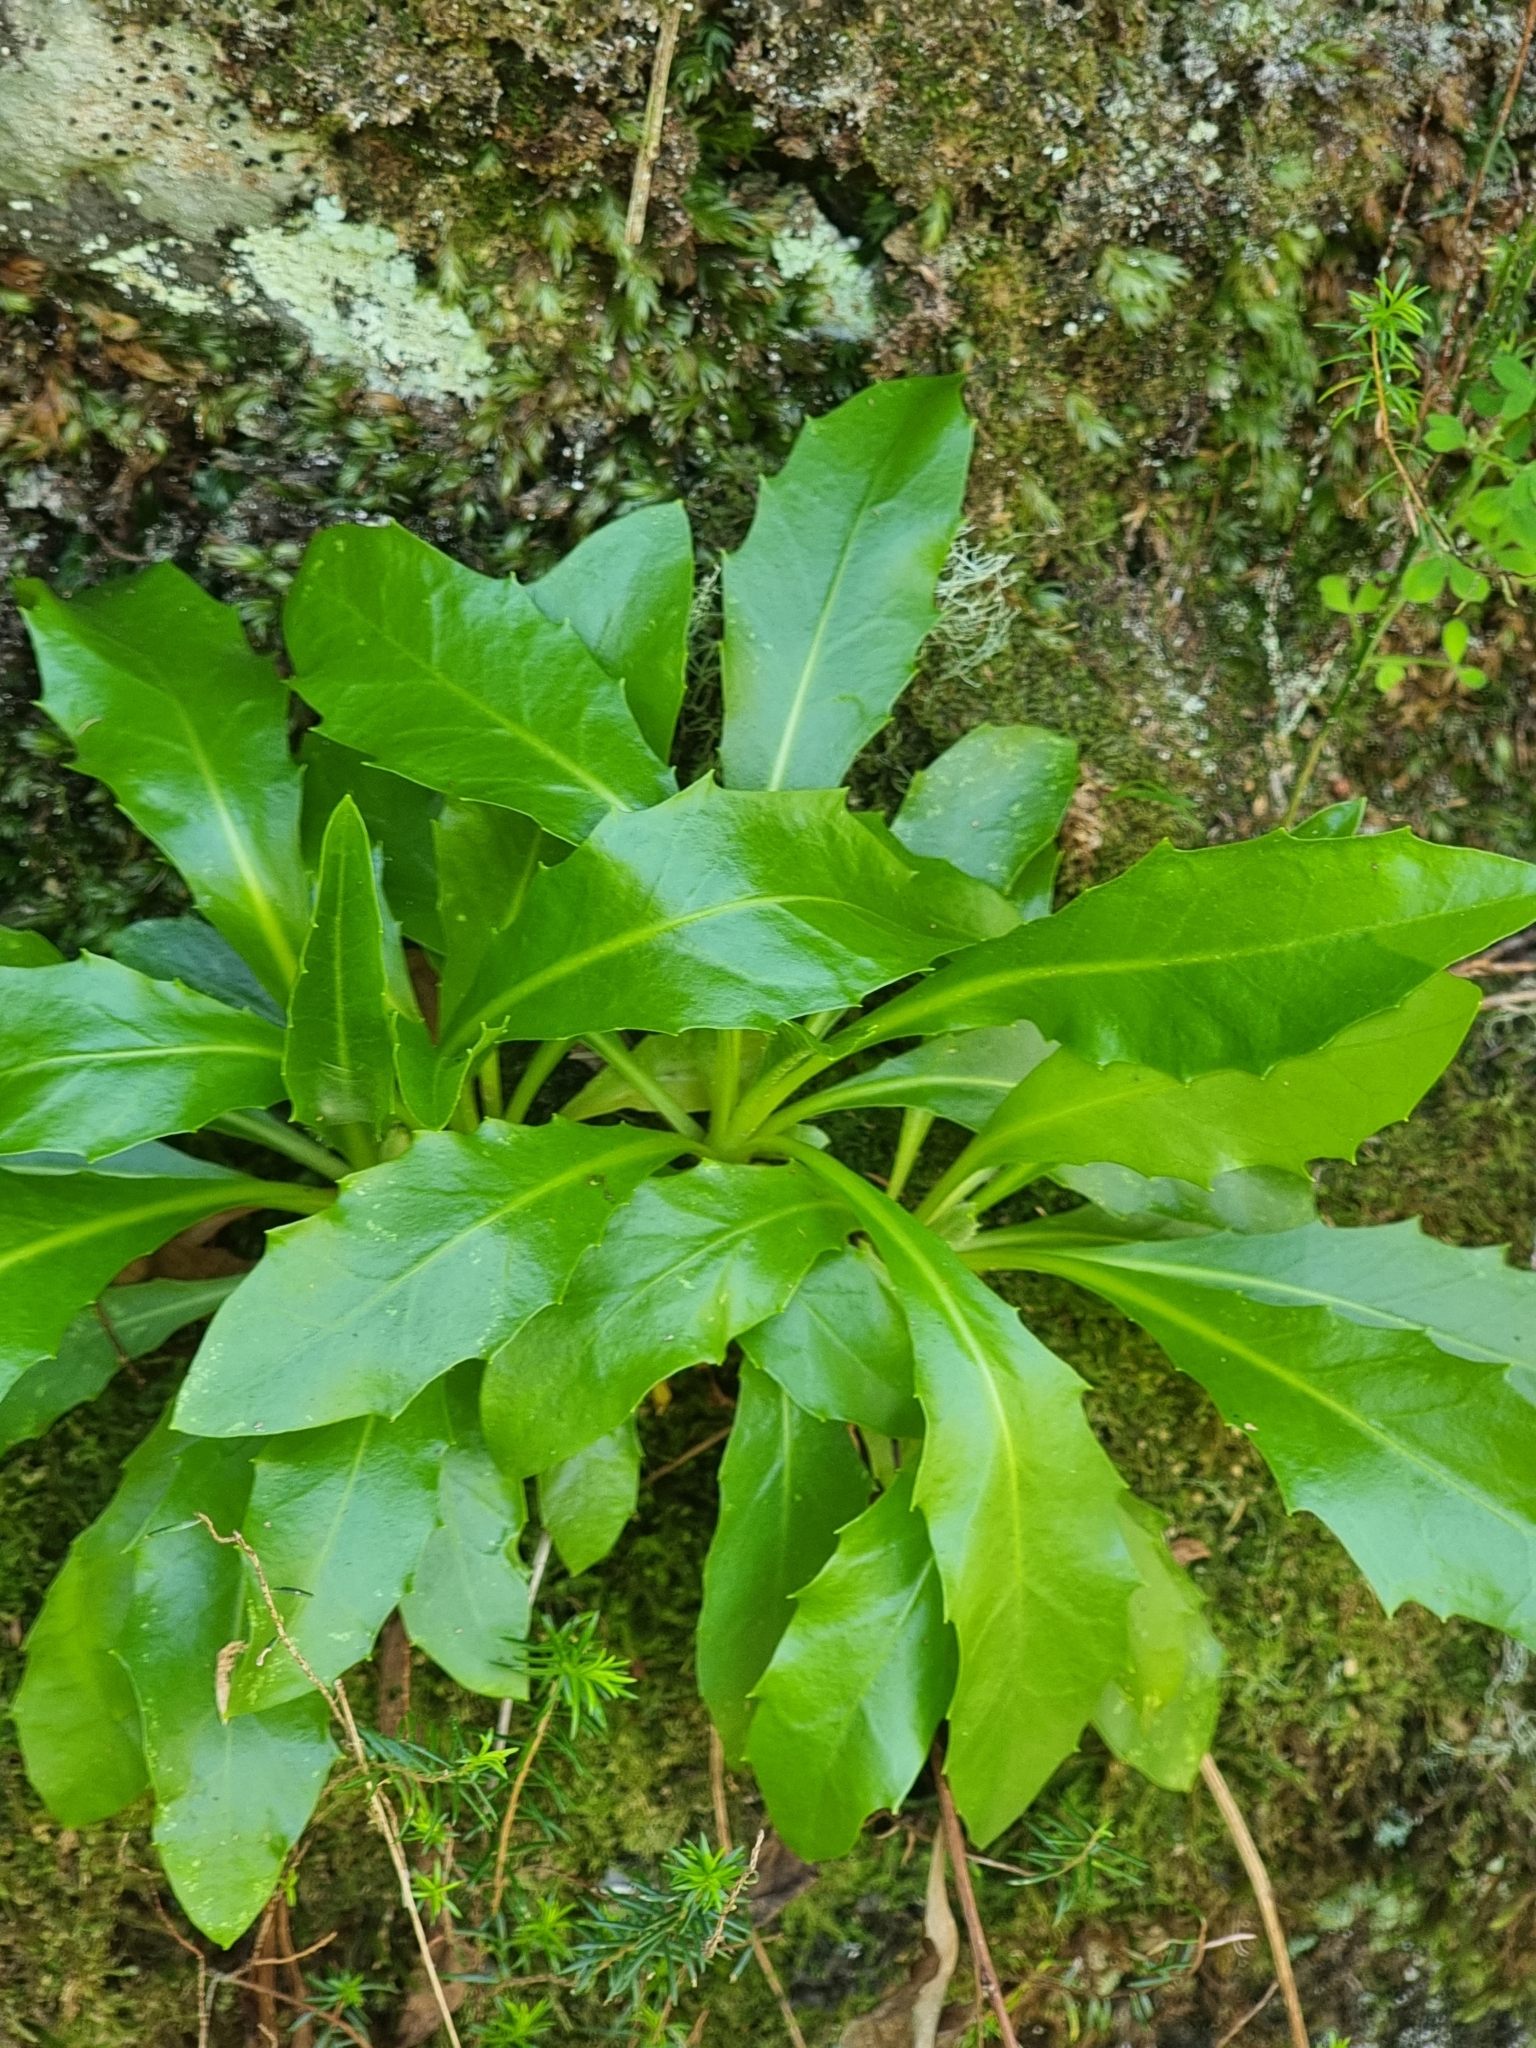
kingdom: Plantae
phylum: Tracheophyta
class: Magnoliopsida
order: Asterales
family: Asteraceae
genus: Tolpis
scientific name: Tolpis macrorhiza
